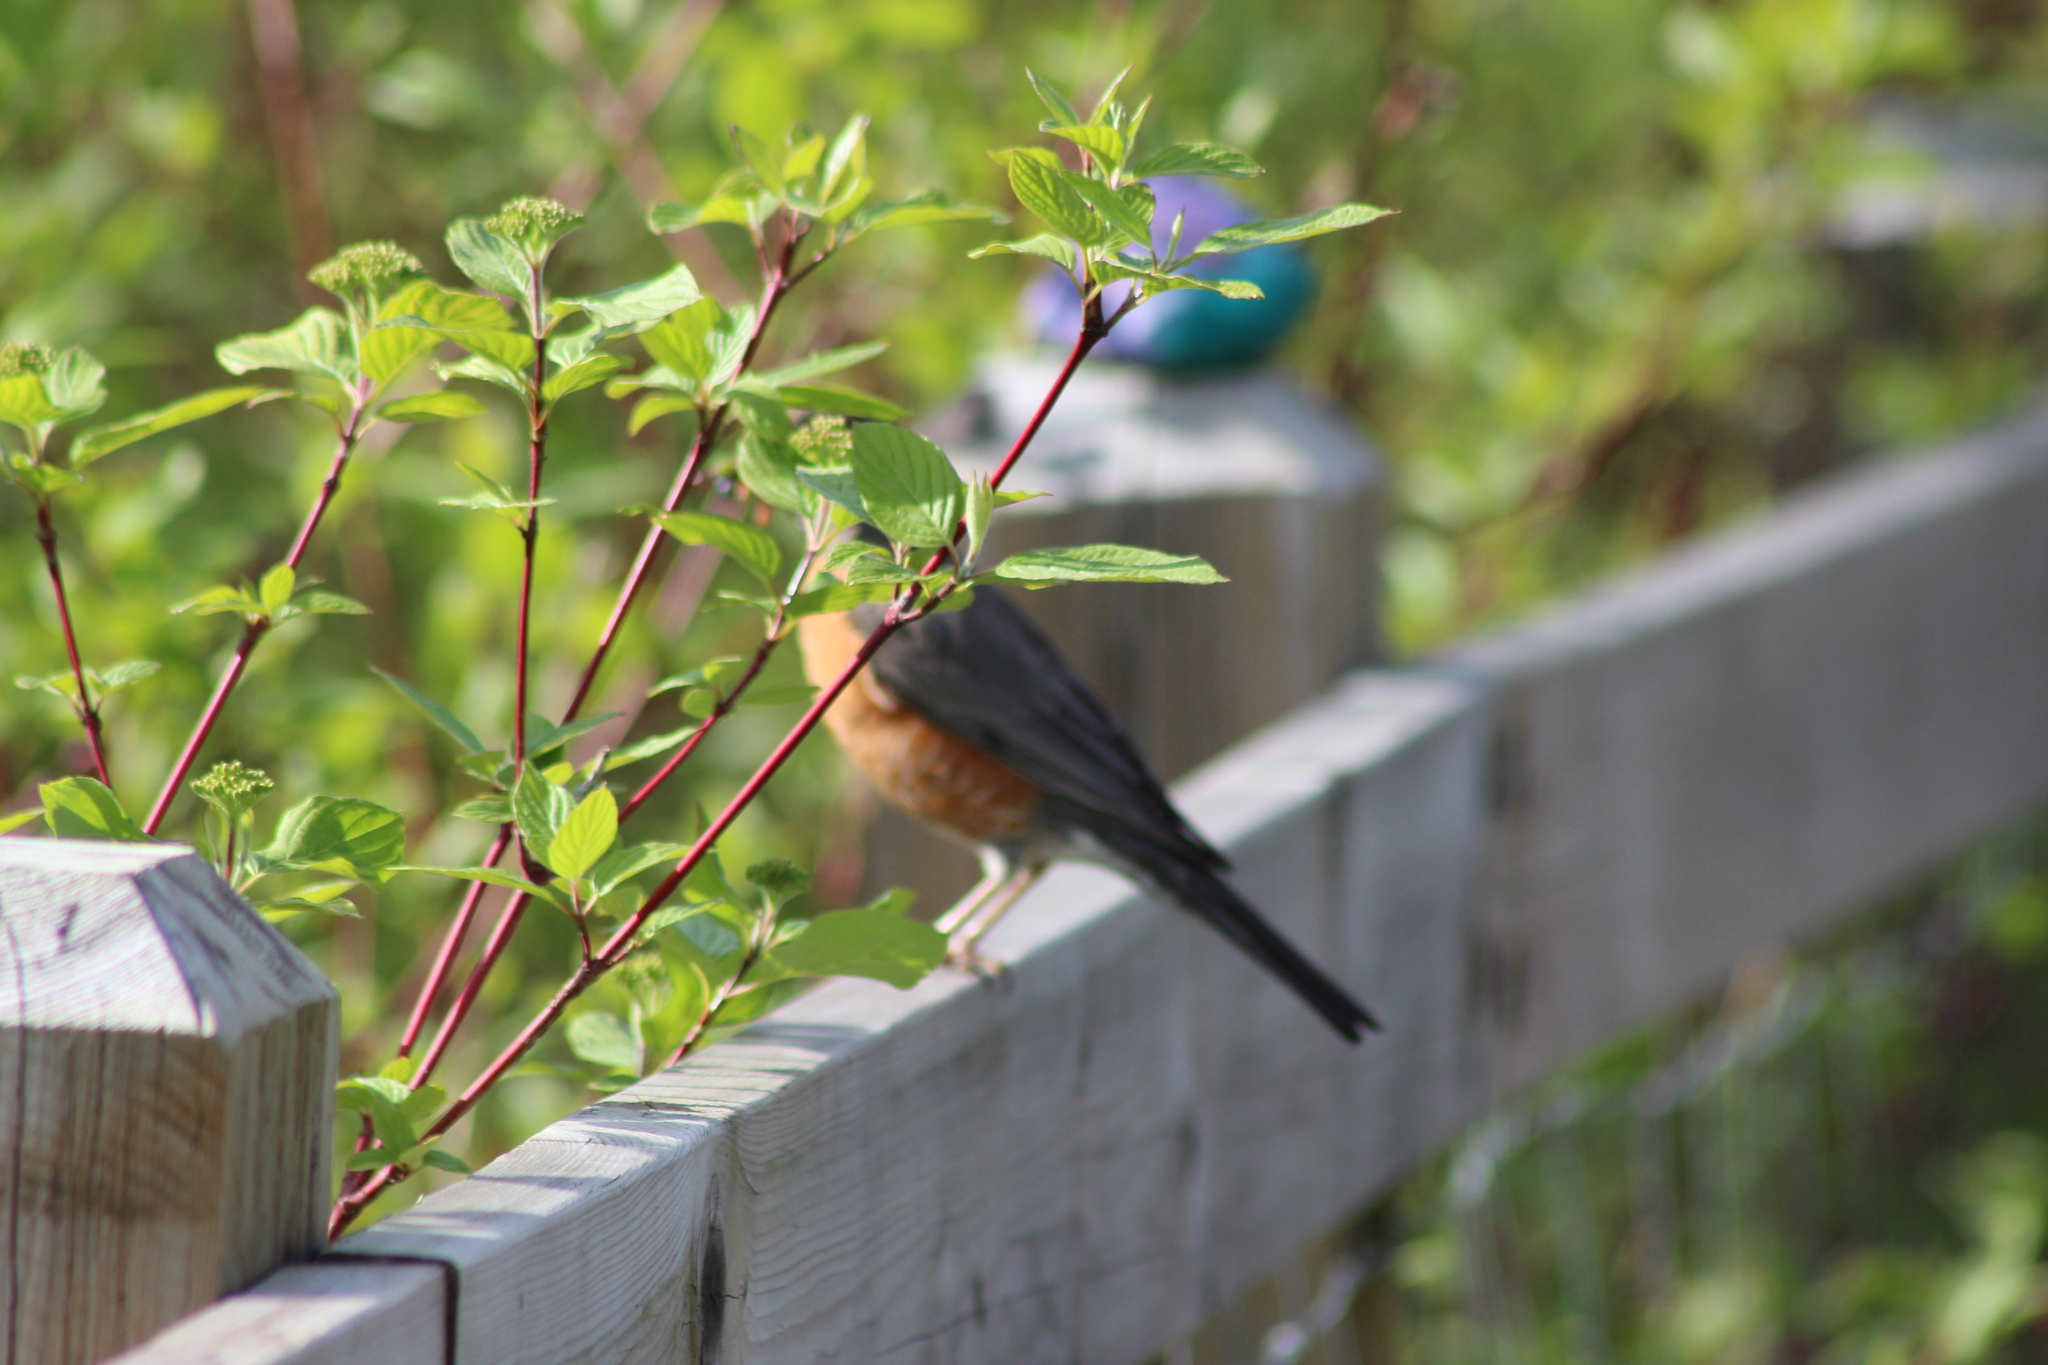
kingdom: Animalia
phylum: Chordata
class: Aves
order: Passeriformes
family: Turdidae
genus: Turdus
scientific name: Turdus migratorius
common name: American robin
